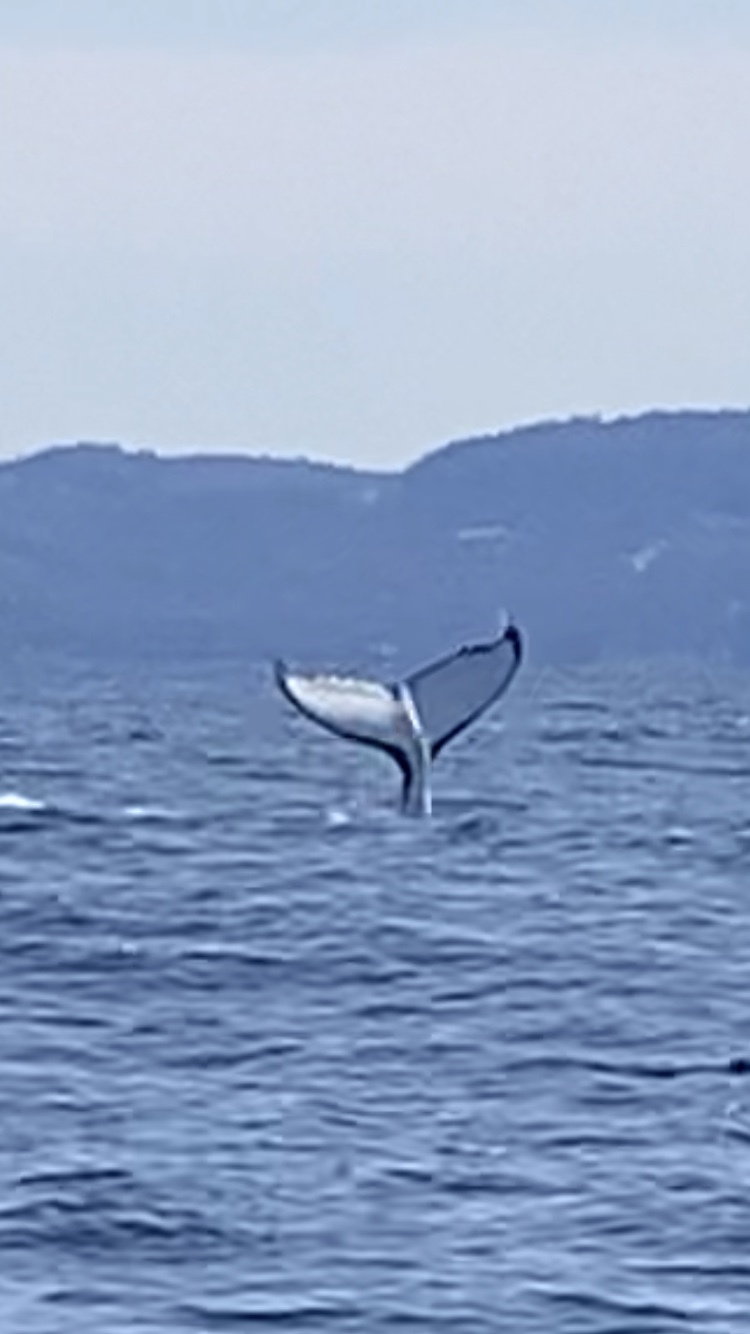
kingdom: Animalia
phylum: Chordata
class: Mammalia
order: Cetacea
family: Balaenopteridae
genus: Megaptera
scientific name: Megaptera novaeangliae
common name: Humpback whale
